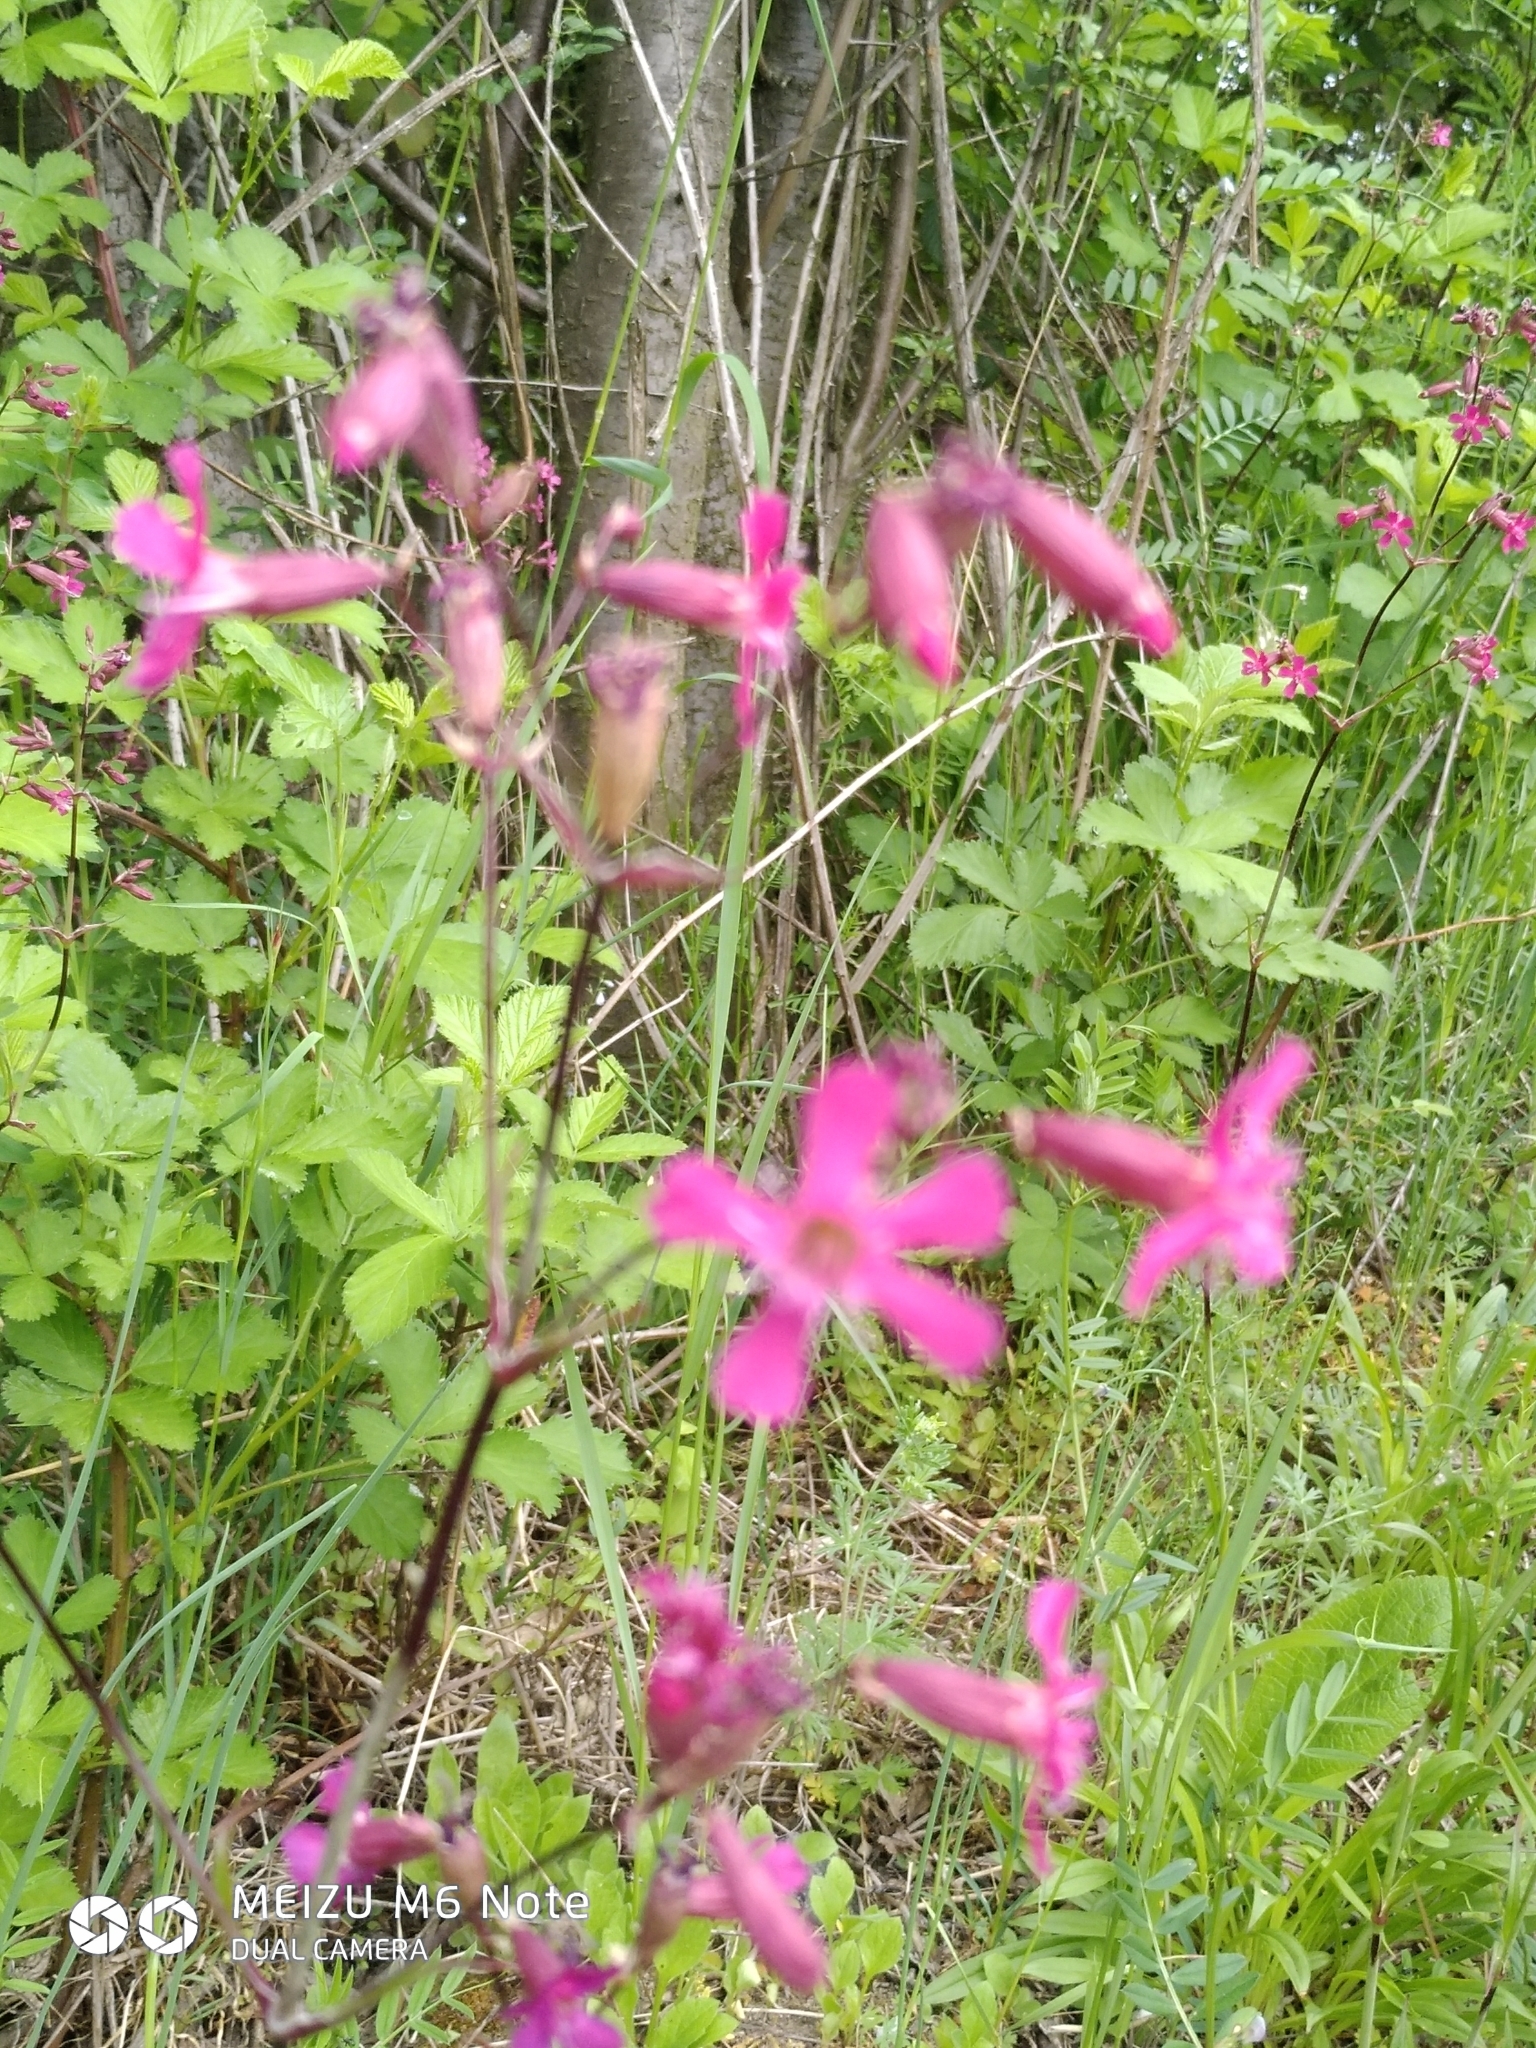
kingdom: Plantae
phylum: Tracheophyta
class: Magnoliopsida
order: Caryophyllales
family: Caryophyllaceae
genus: Viscaria
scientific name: Viscaria vulgaris
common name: Clammy campion
